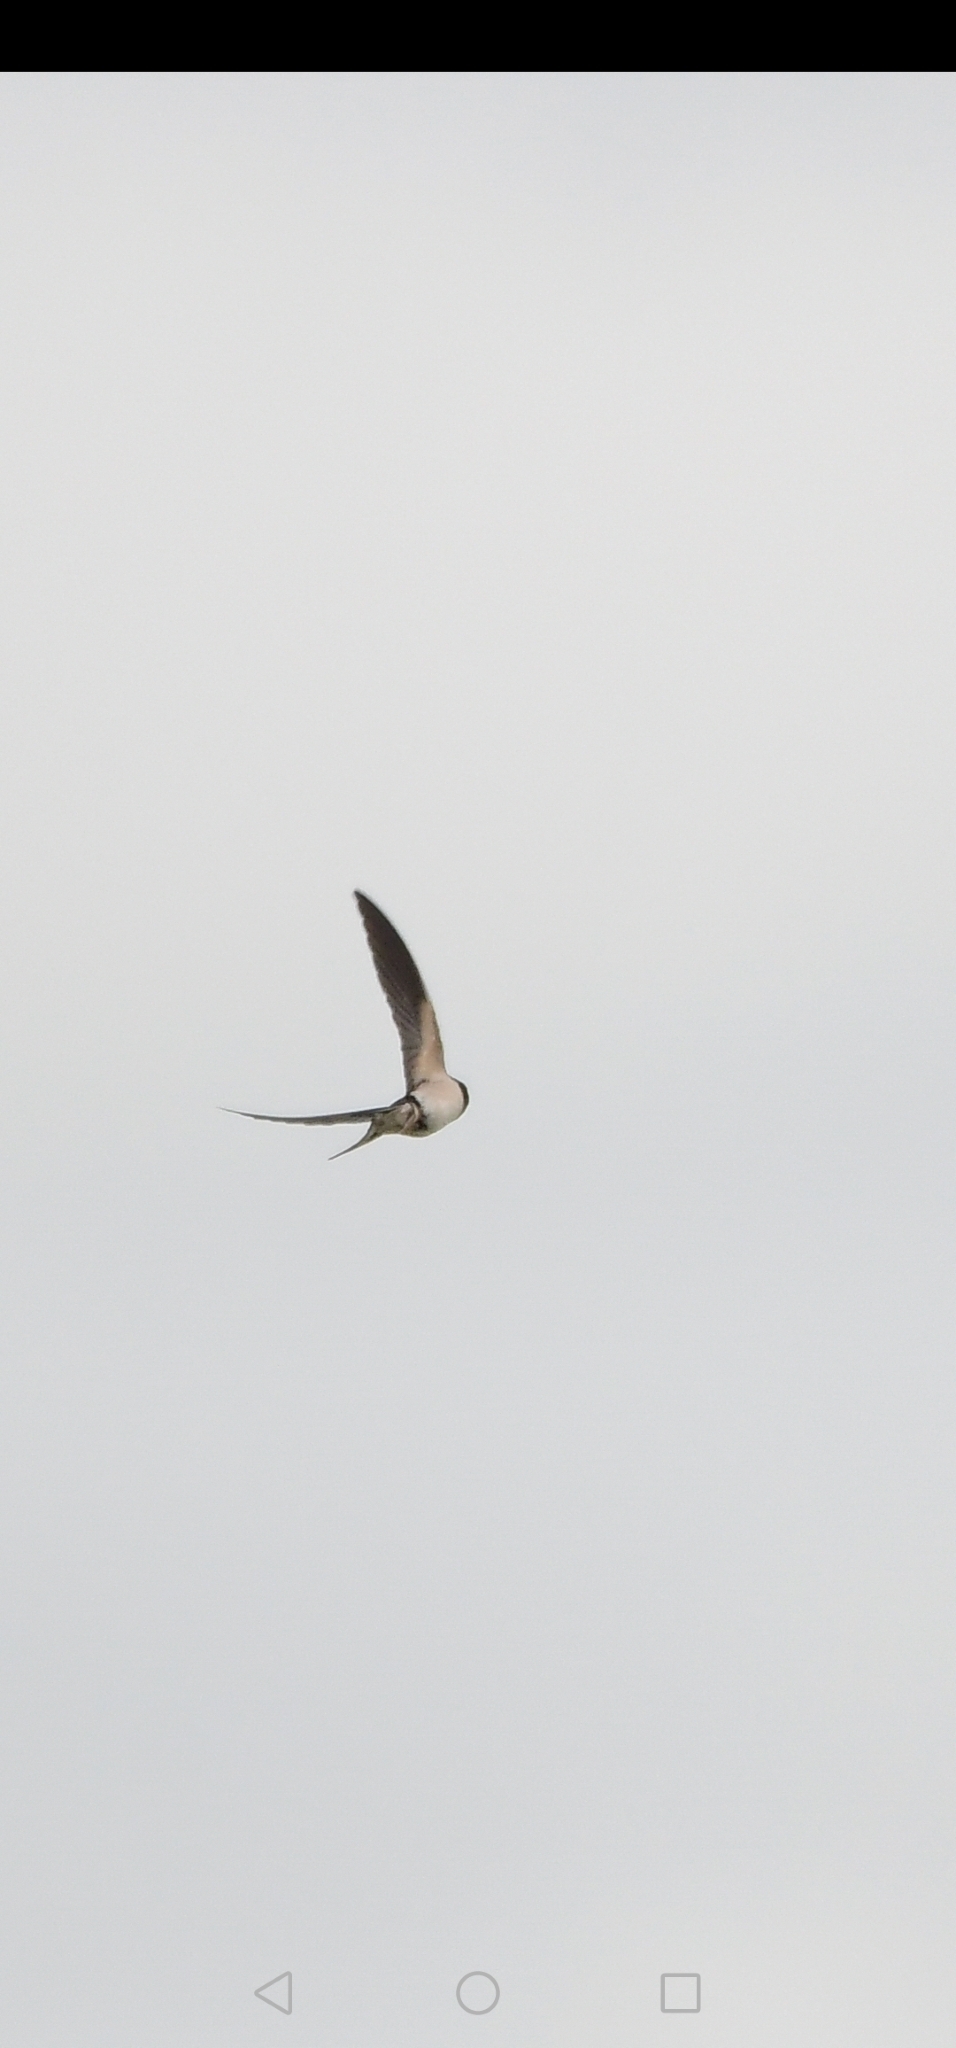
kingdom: Animalia
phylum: Chordata
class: Aves
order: Passeriformes
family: Hirundinidae
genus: Hirundo
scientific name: Hirundo rustica
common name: Barn swallow
